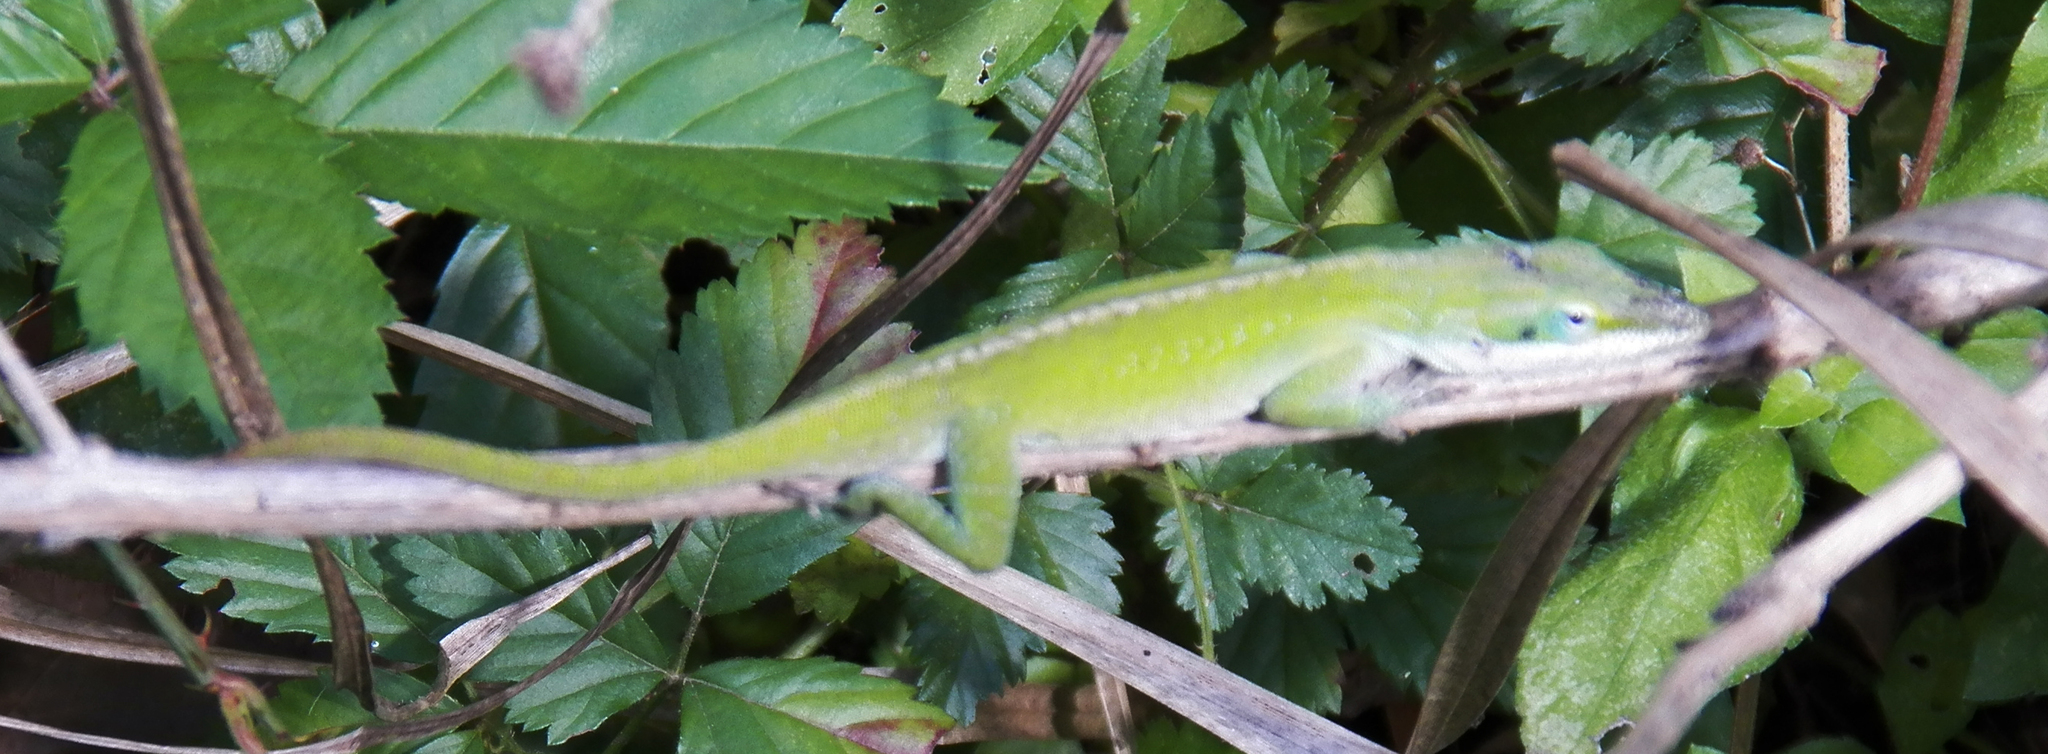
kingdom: Animalia
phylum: Chordata
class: Squamata
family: Dactyloidae
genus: Anolis
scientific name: Anolis carolinensis
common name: Green anole
